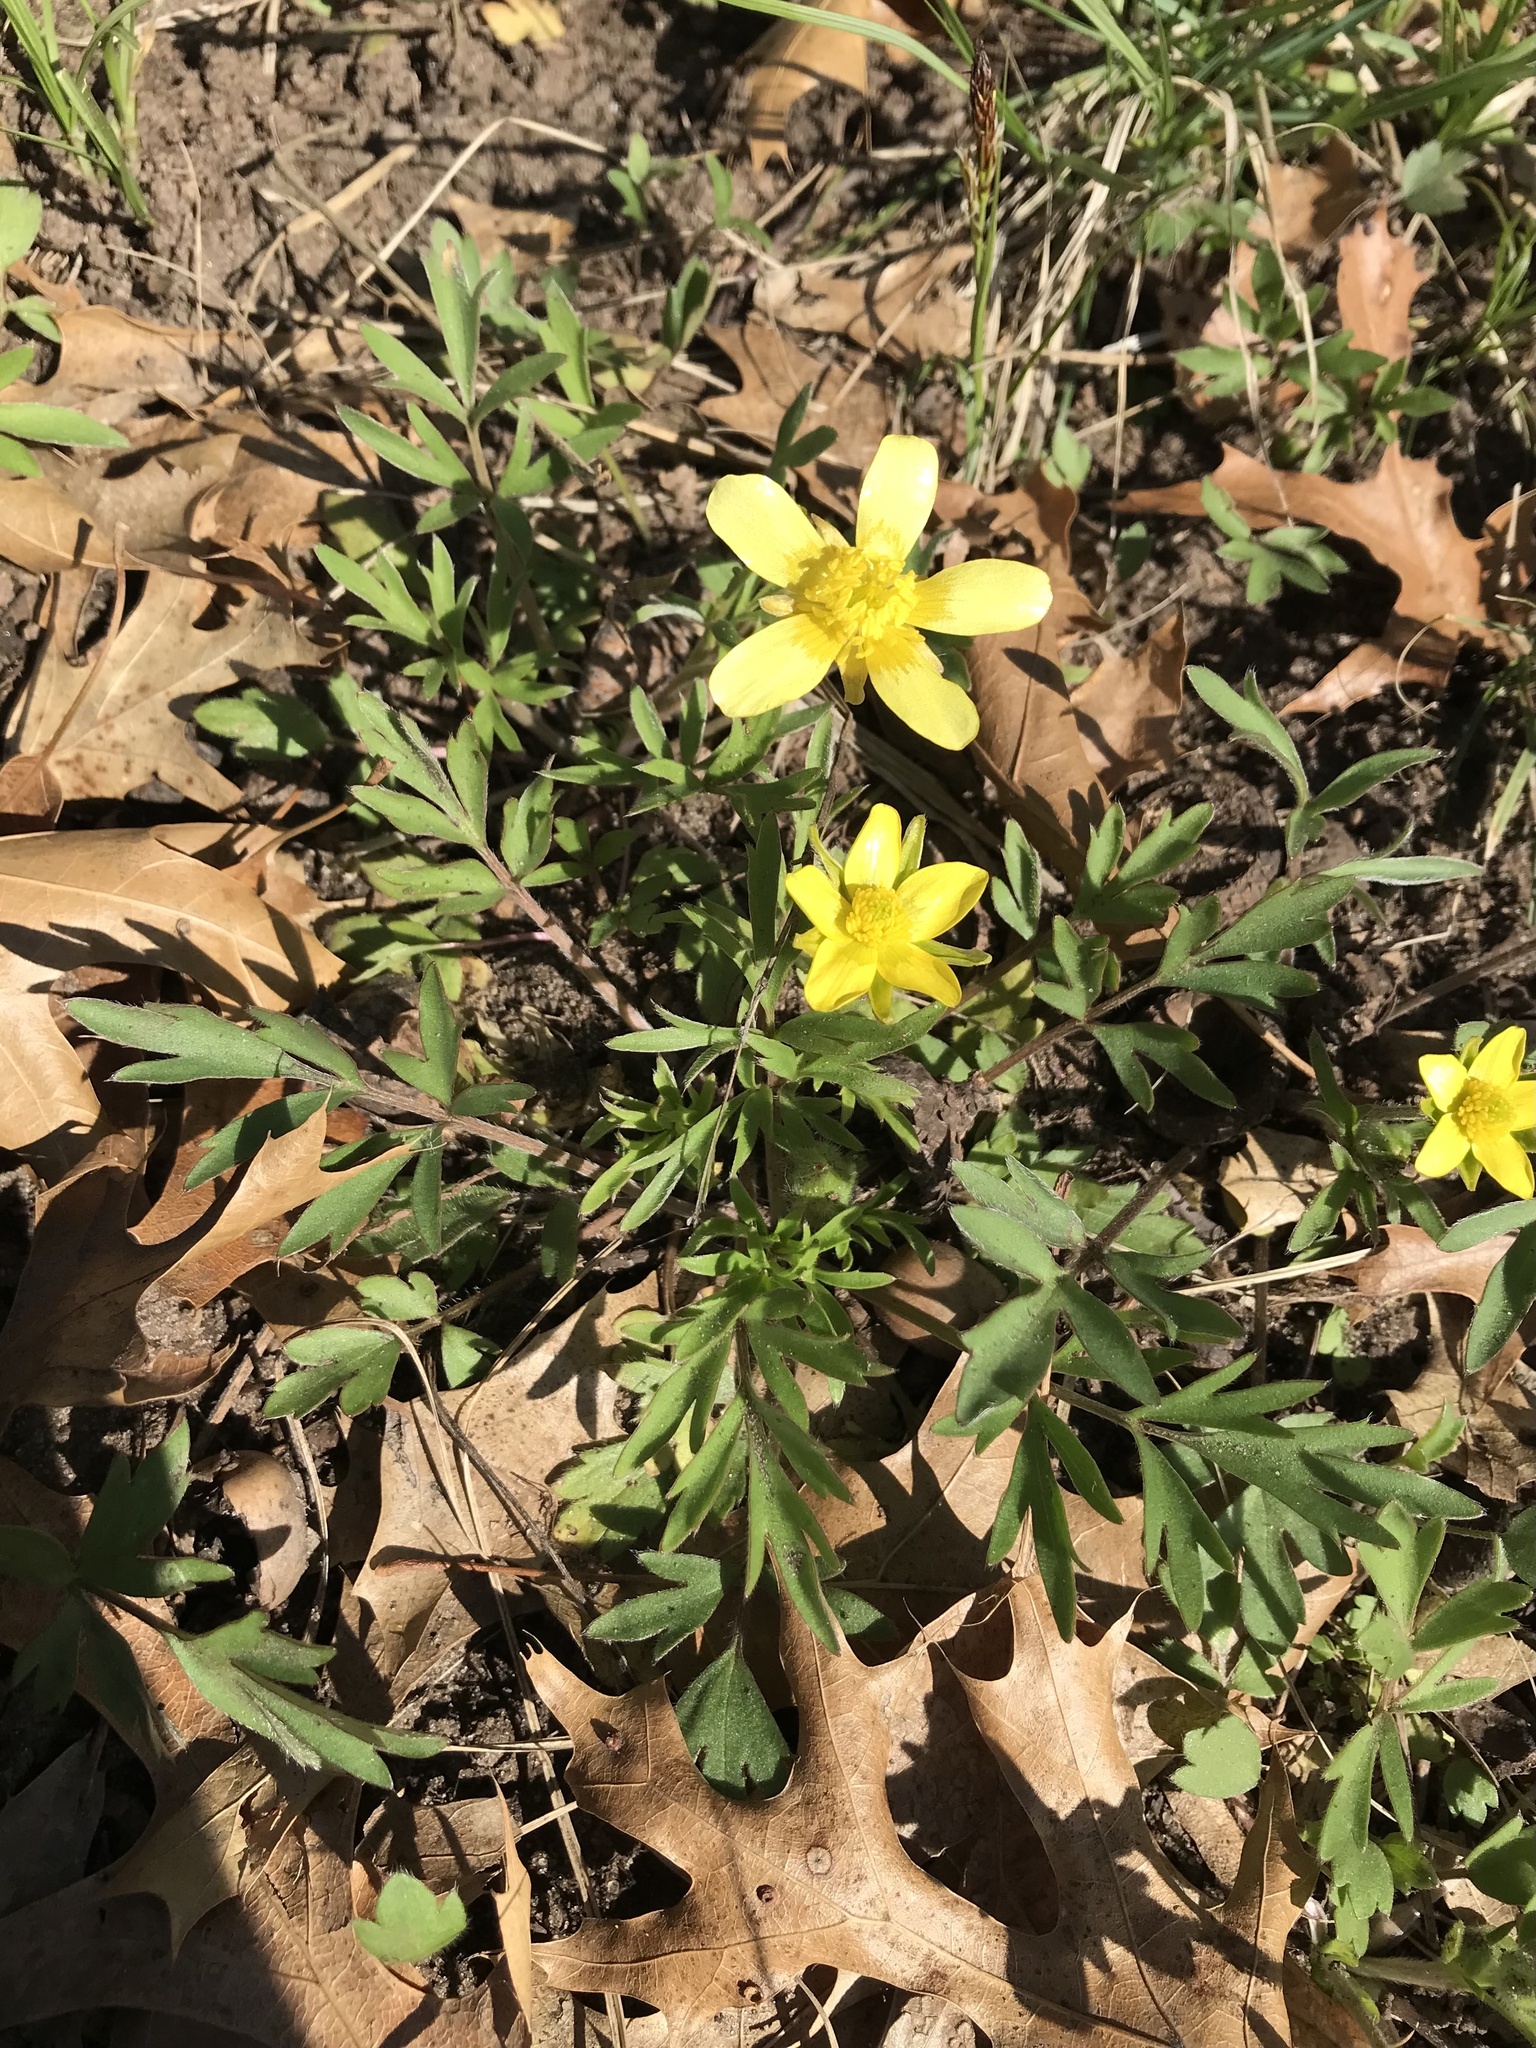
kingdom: Plantae
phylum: Tracheophyta
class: Magnoliopsida
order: Ranunculales
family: Ranunculaceae
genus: Ranunculus
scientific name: Ranunculus fascicularis
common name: Early buttercup
